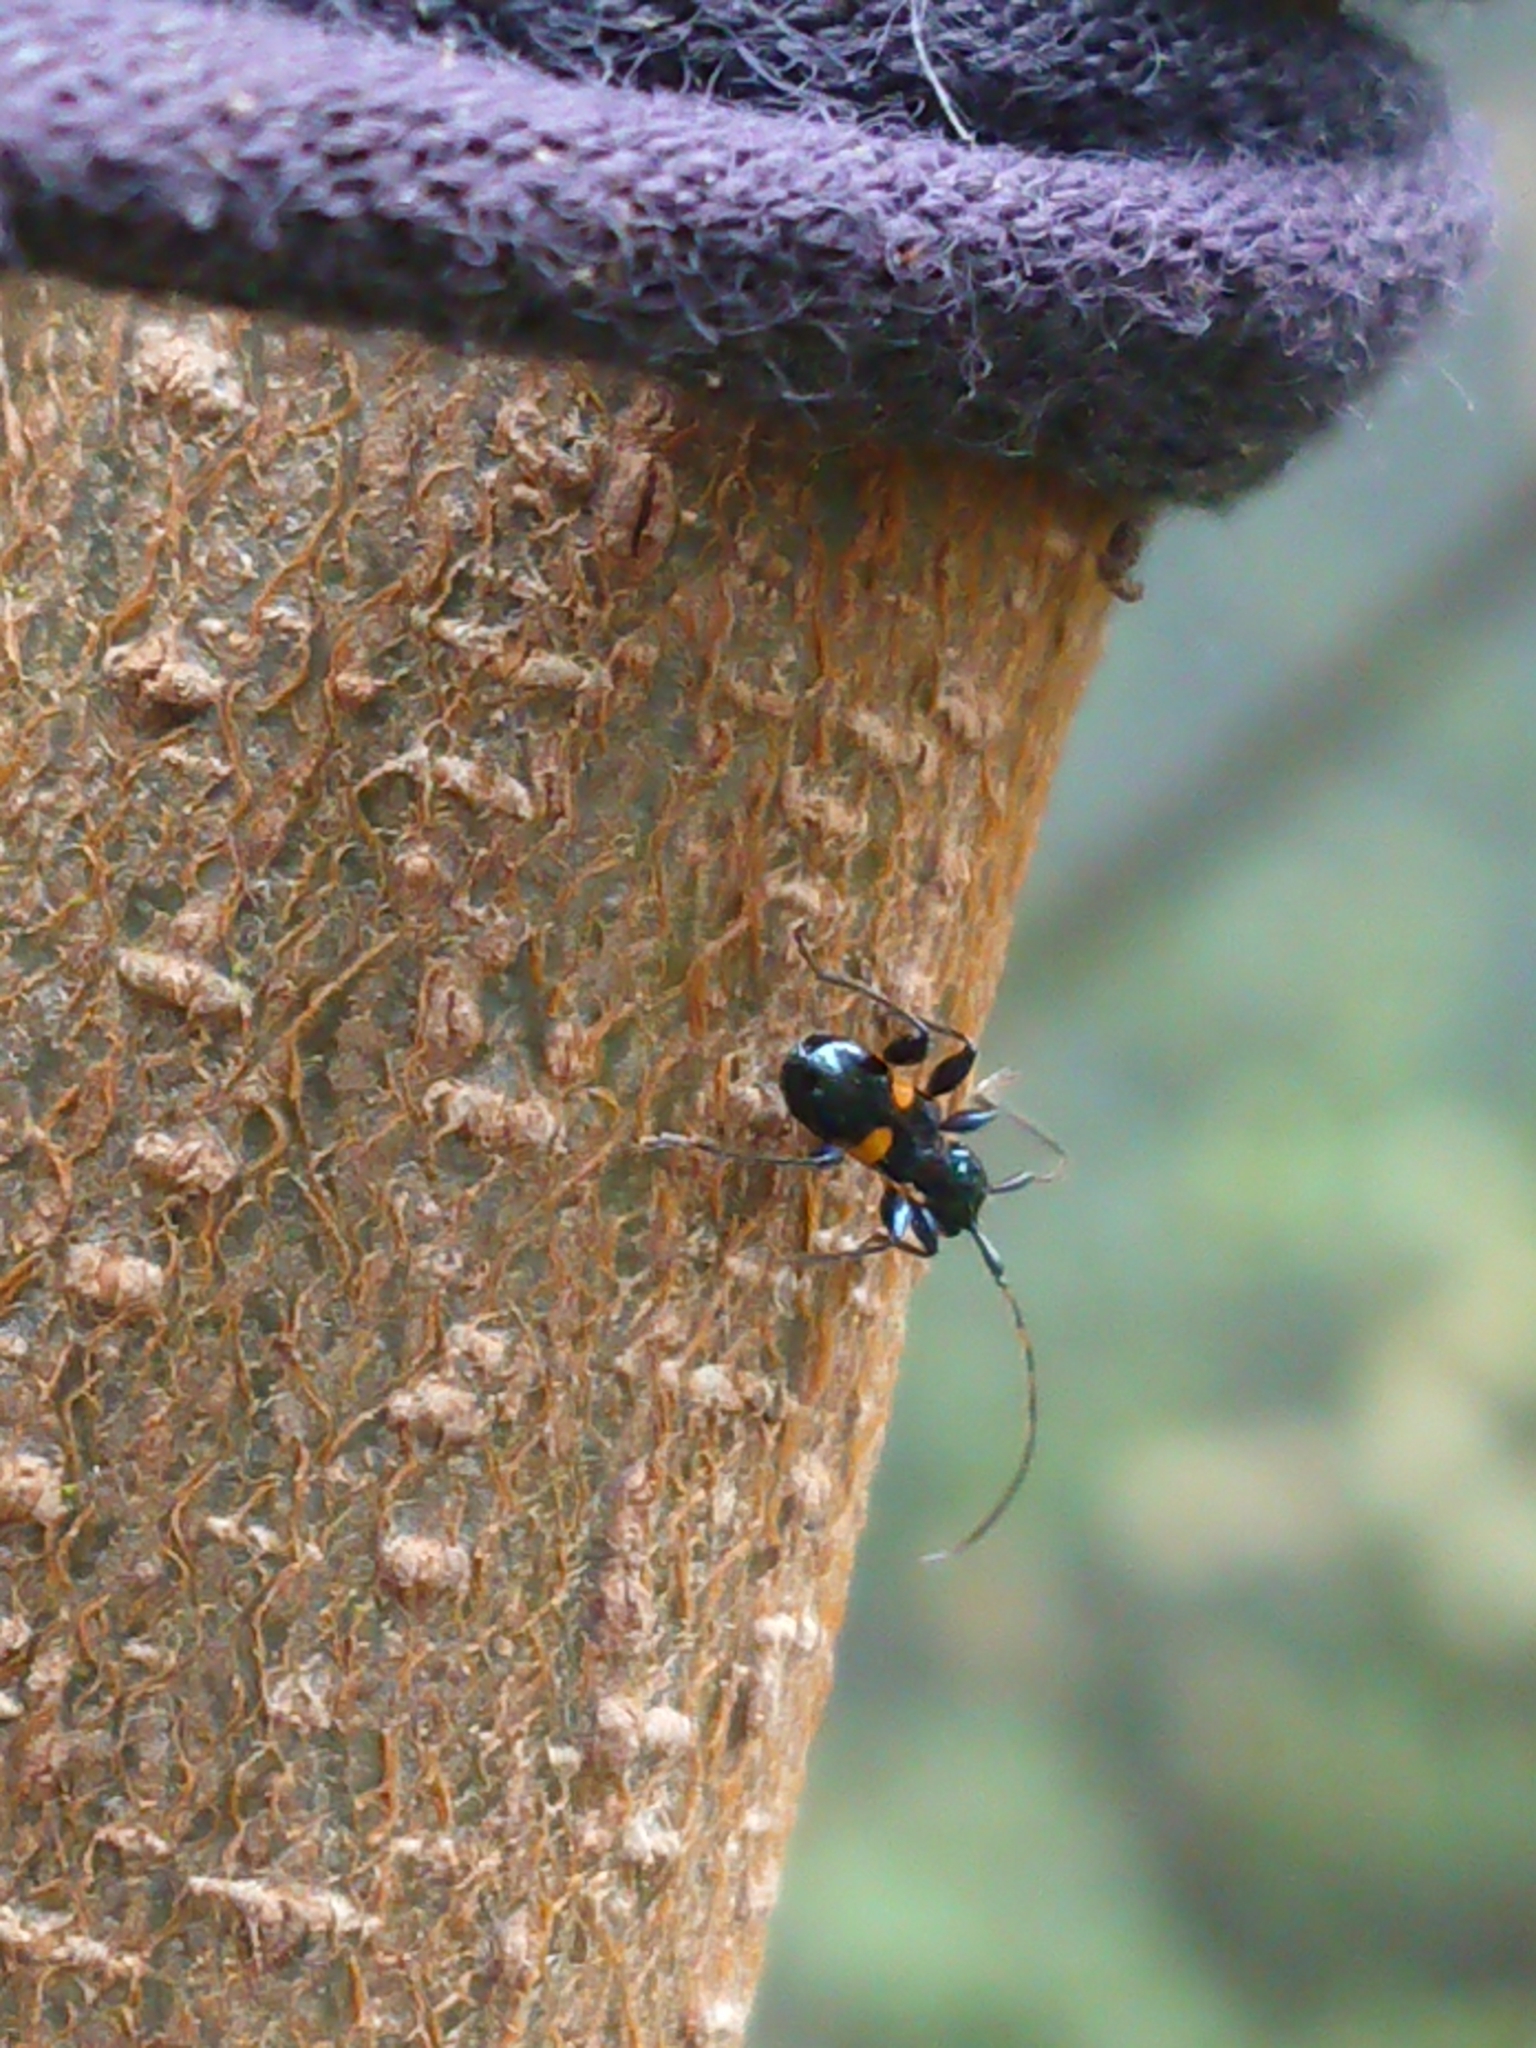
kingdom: Animalia
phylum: Arthropoda
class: Insecta
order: Coleoptera
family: Cerambycidae
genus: Zorion
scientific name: Zorion guttigerum
